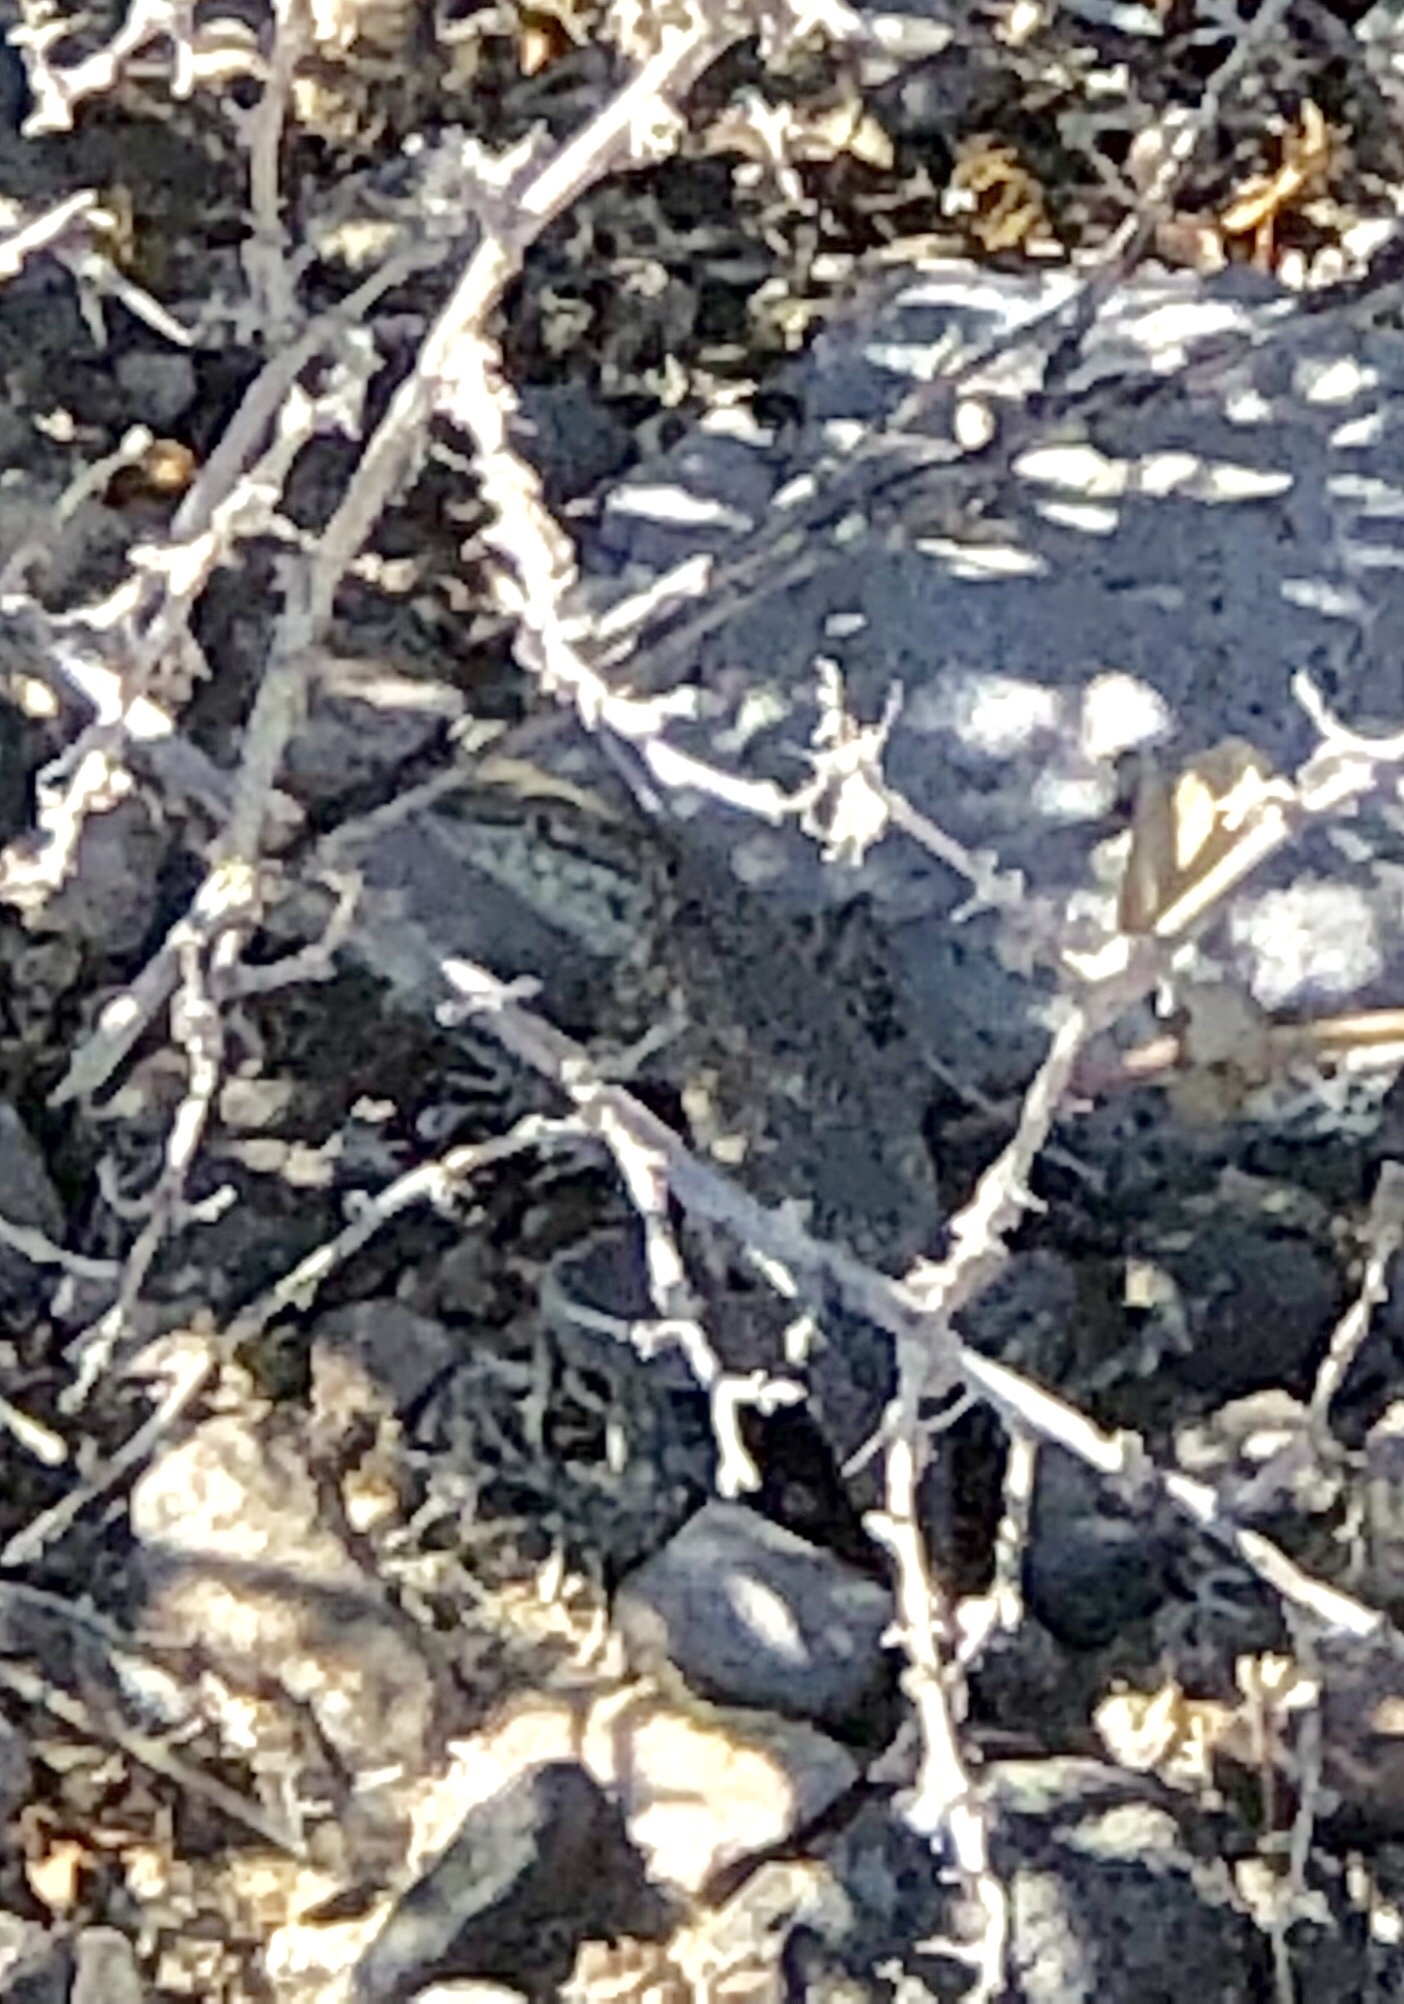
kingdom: Animalia
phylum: Chordata
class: Squamata
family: Phrynosomatidae
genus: Uta
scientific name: Uta stansburiana
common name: Side-blotched lizard
